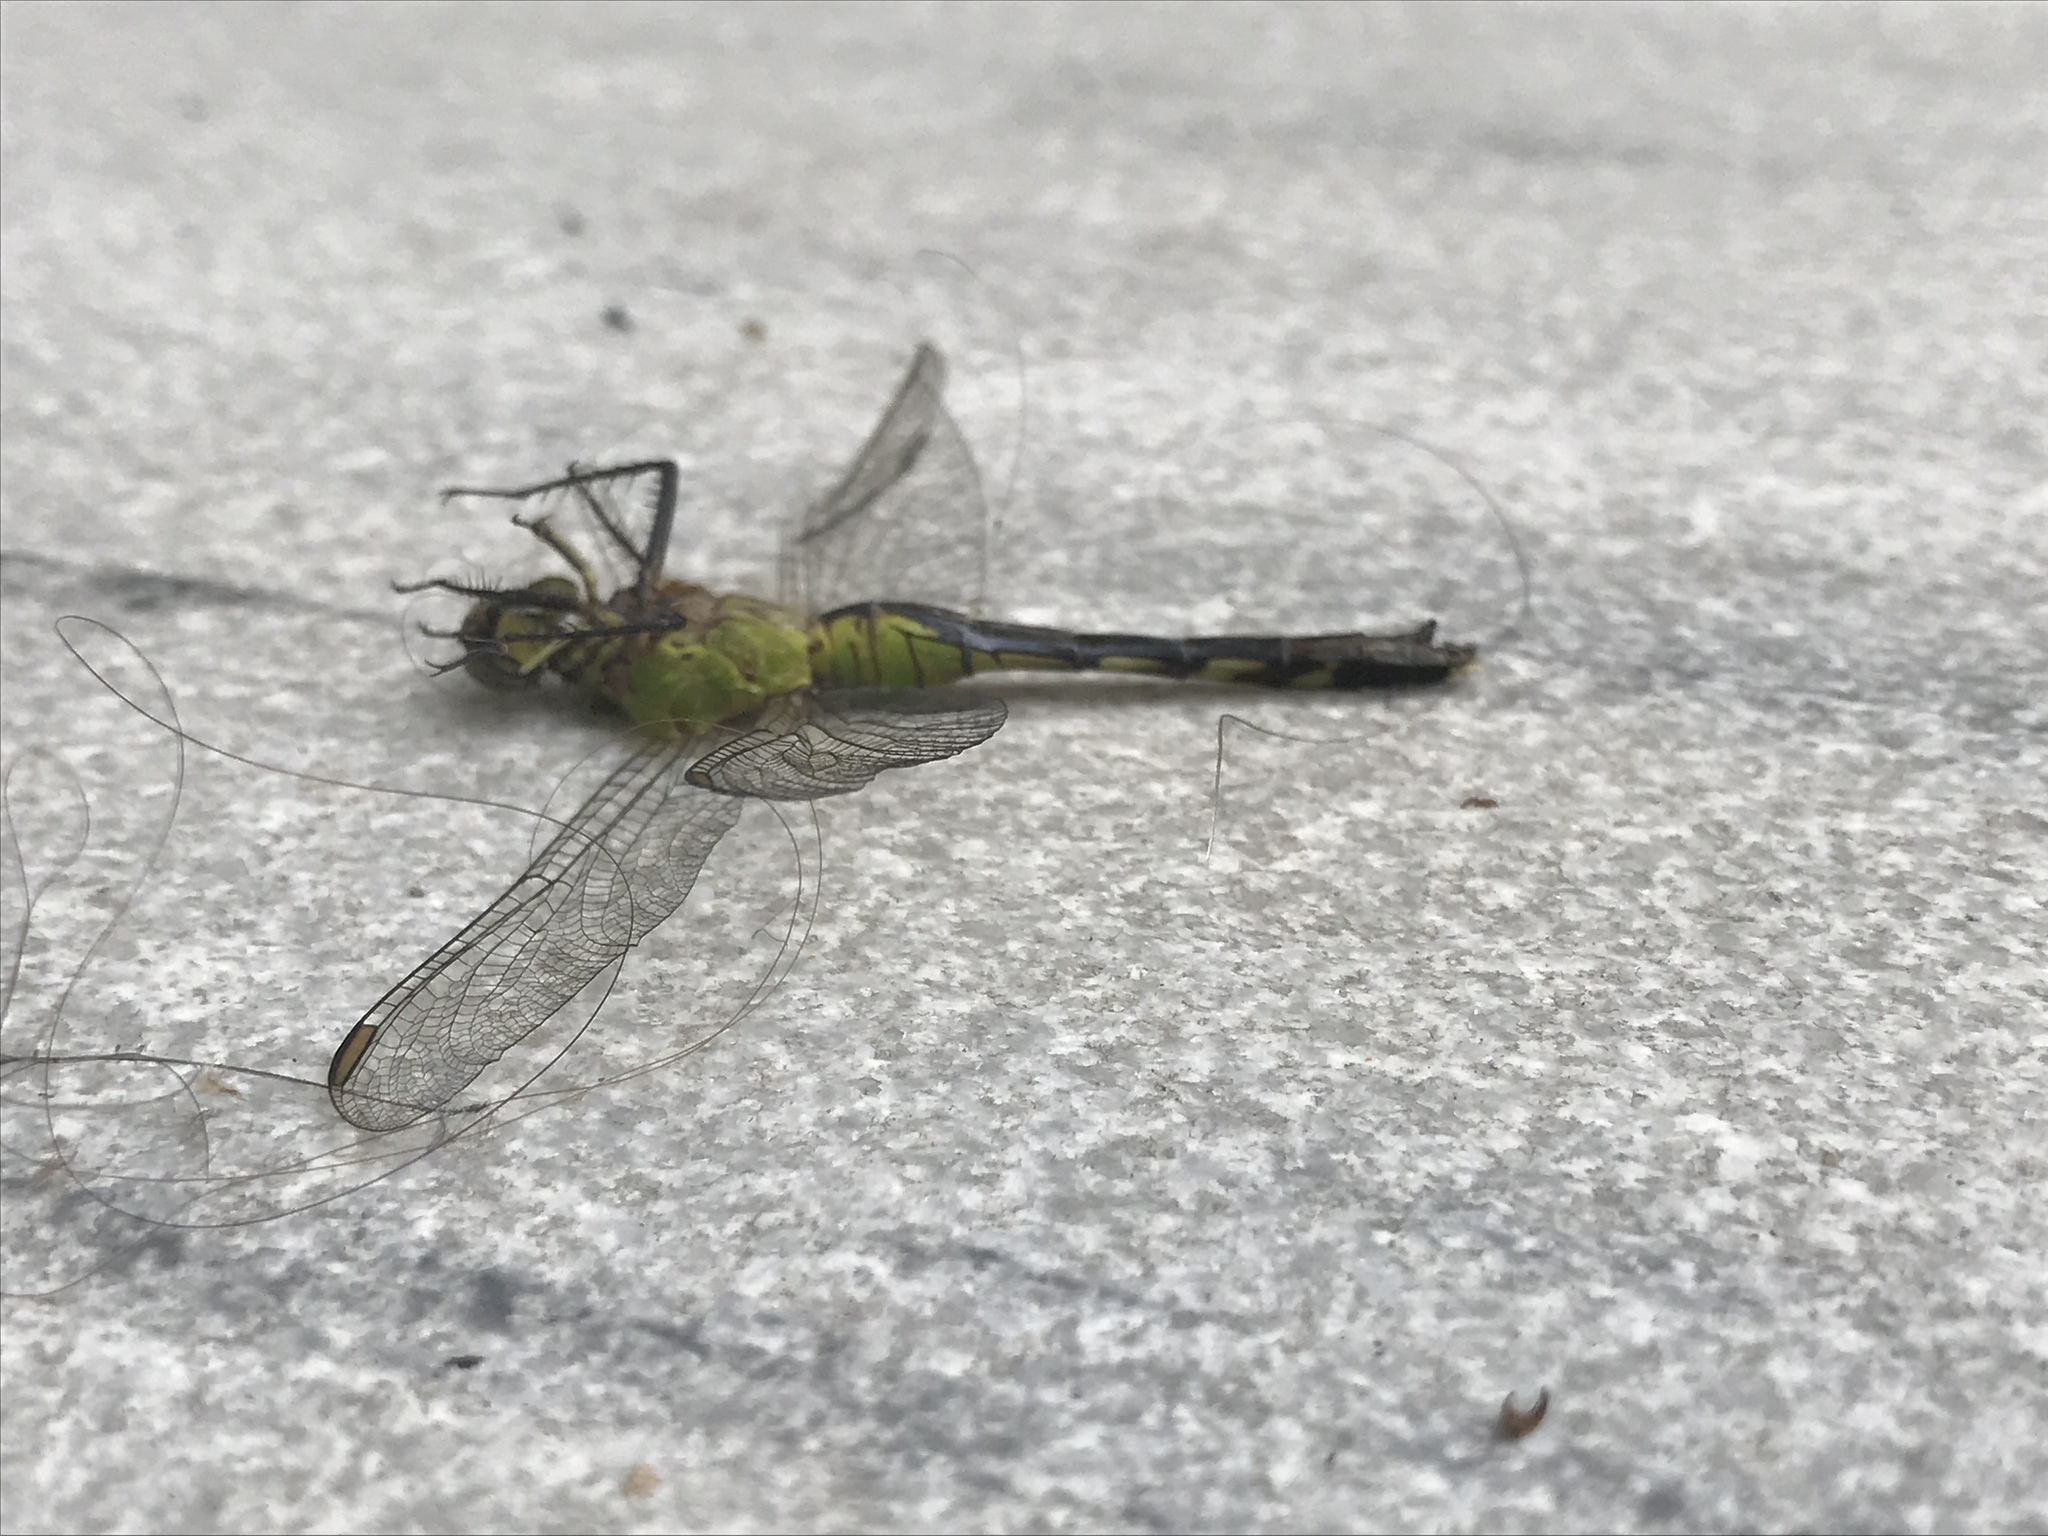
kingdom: Animalia
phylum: Arthropoda
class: Insecta
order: Odonata
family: Libellulidae
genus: Erythemis
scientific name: Erythemis simplicicollis
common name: Eastern pondhawk
